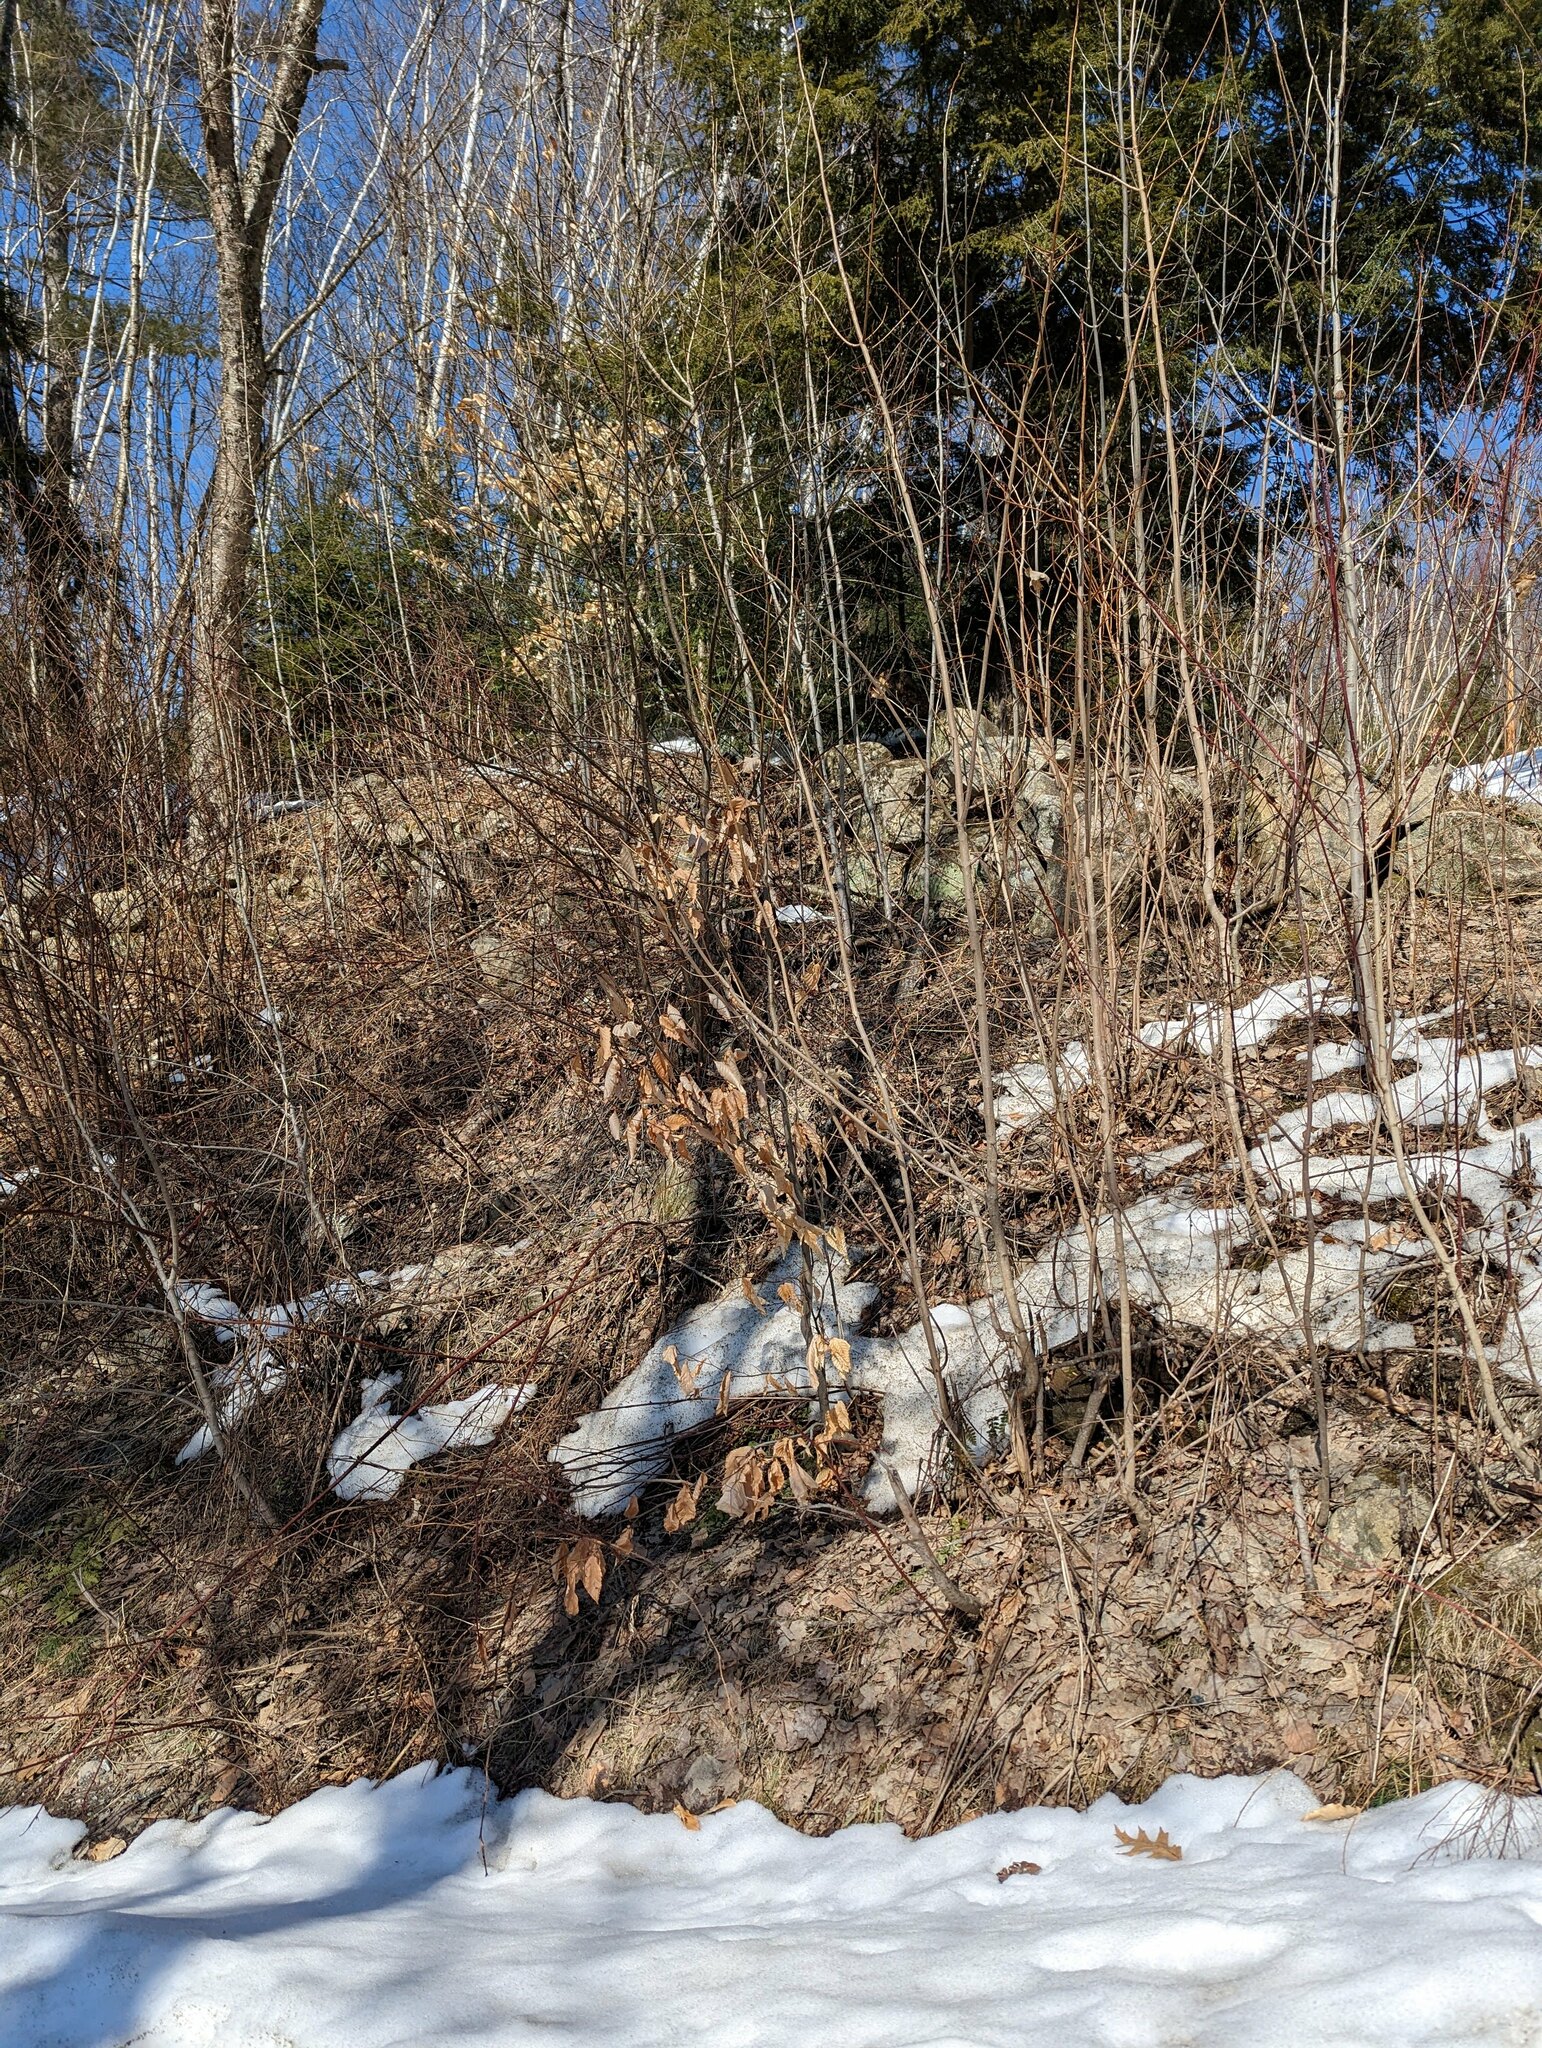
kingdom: Plantae
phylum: Tracheophyta
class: Magnoliopsida
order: Fagales
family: Fagaceae
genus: Fagus
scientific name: Fagus grandifolia
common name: American beech
